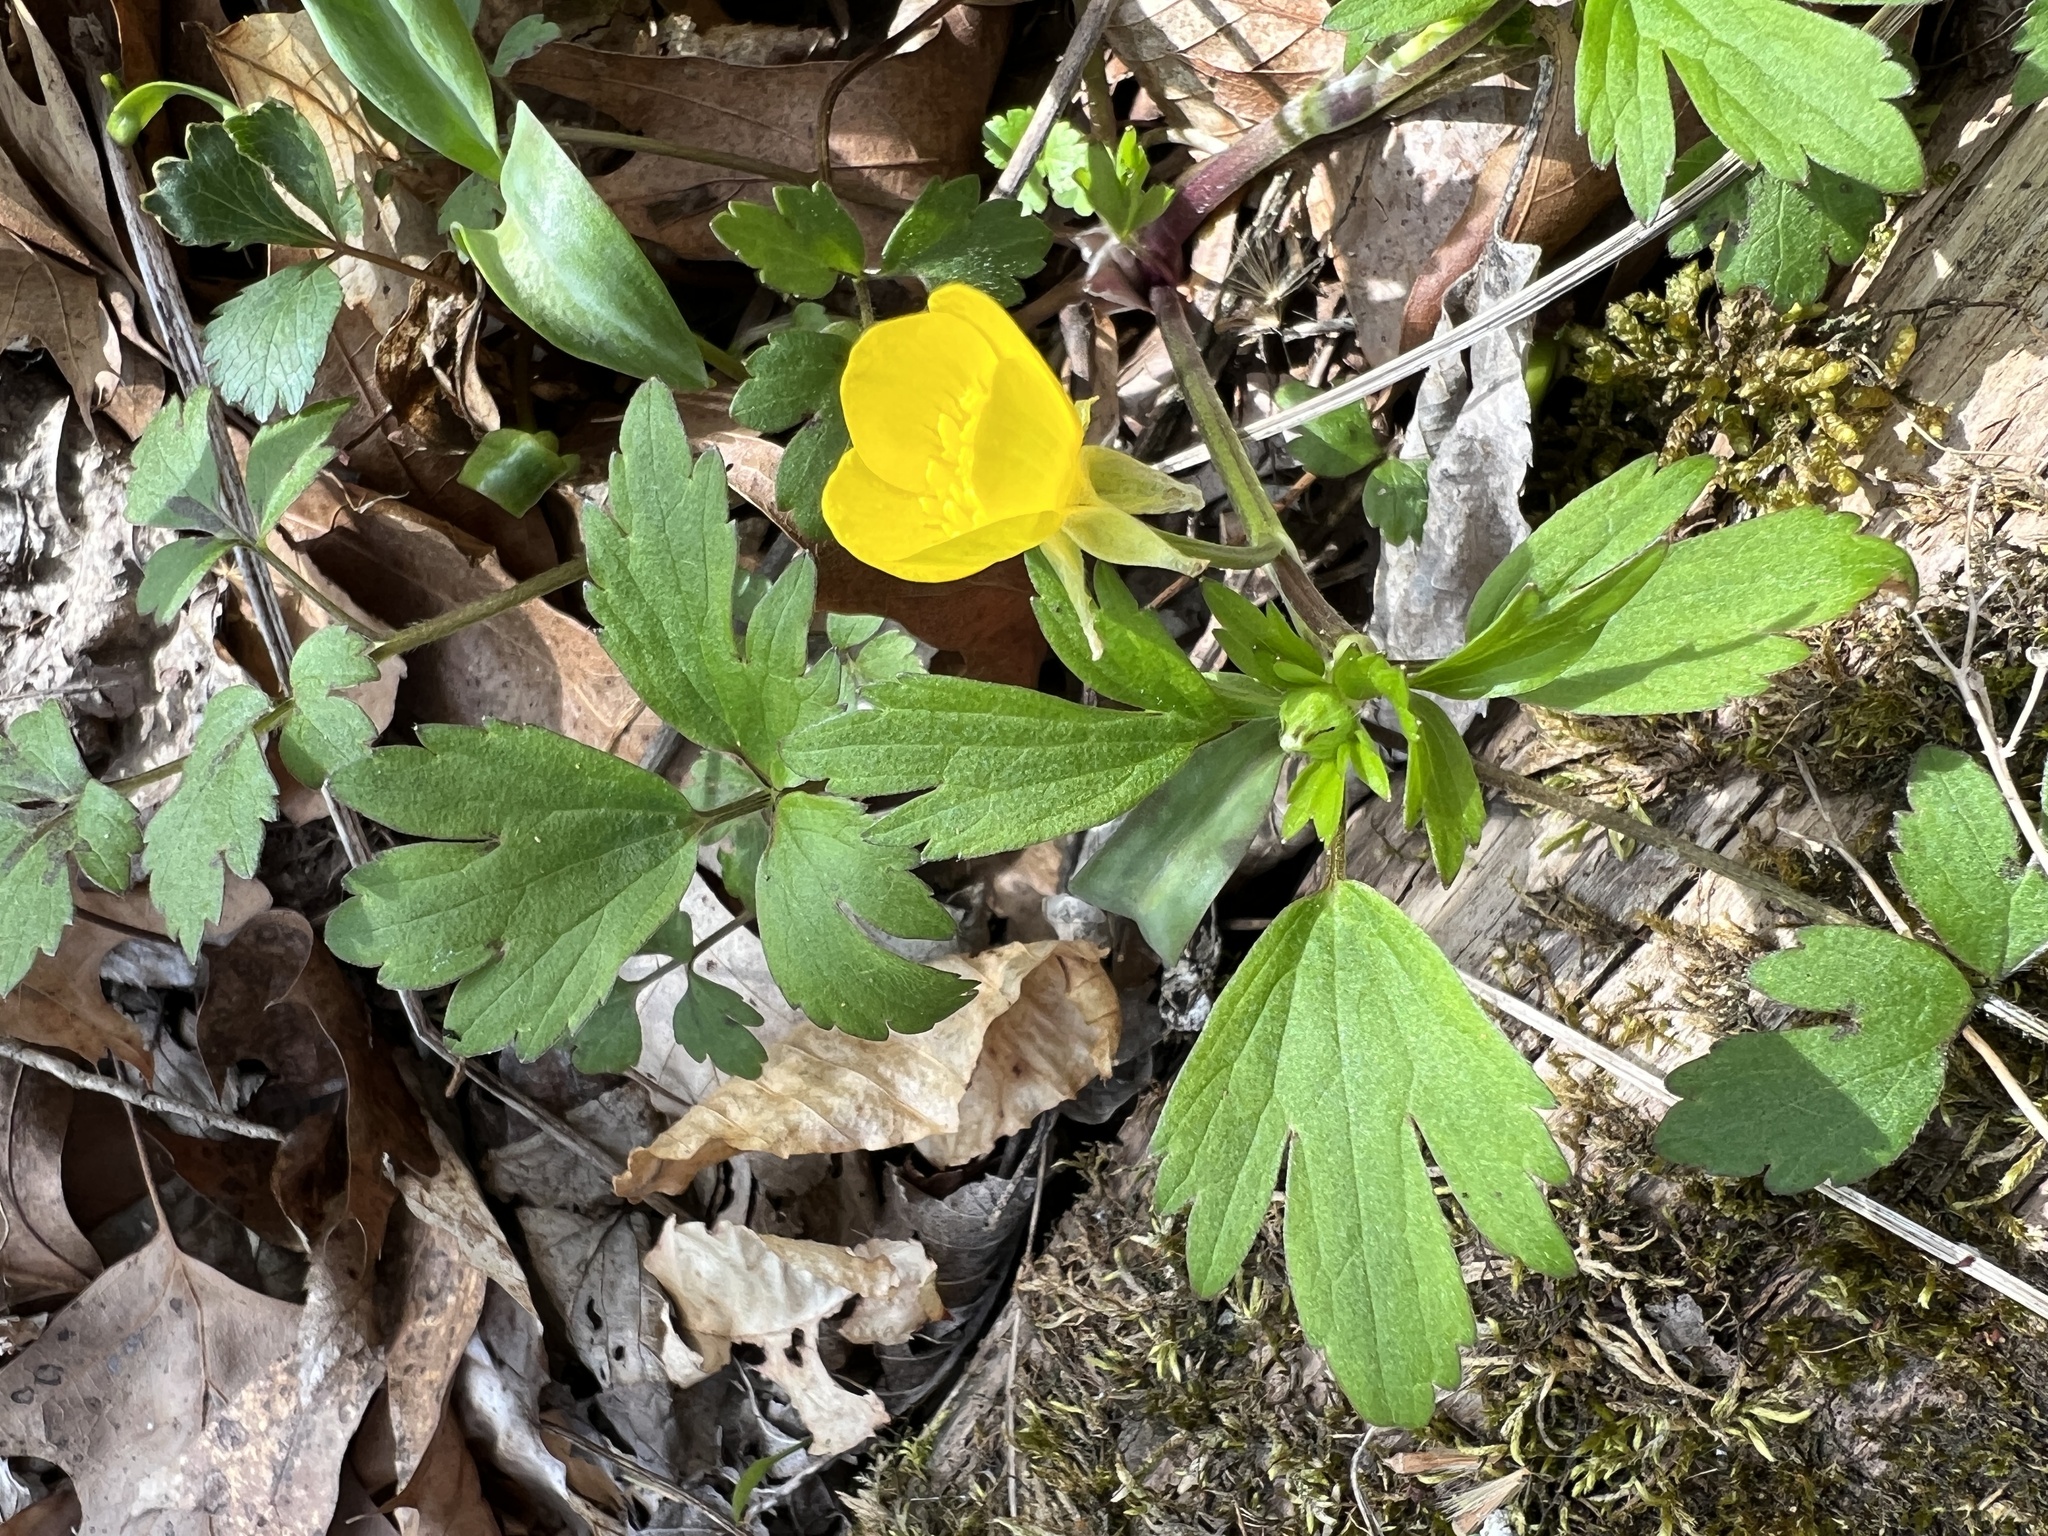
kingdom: Plantae
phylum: Tracheophyta
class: Magnoliopsida
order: Ranunculales
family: Ranunculaceae
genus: Ranunculus
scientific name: Ranunculus hispidus
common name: Bristly buttercup
